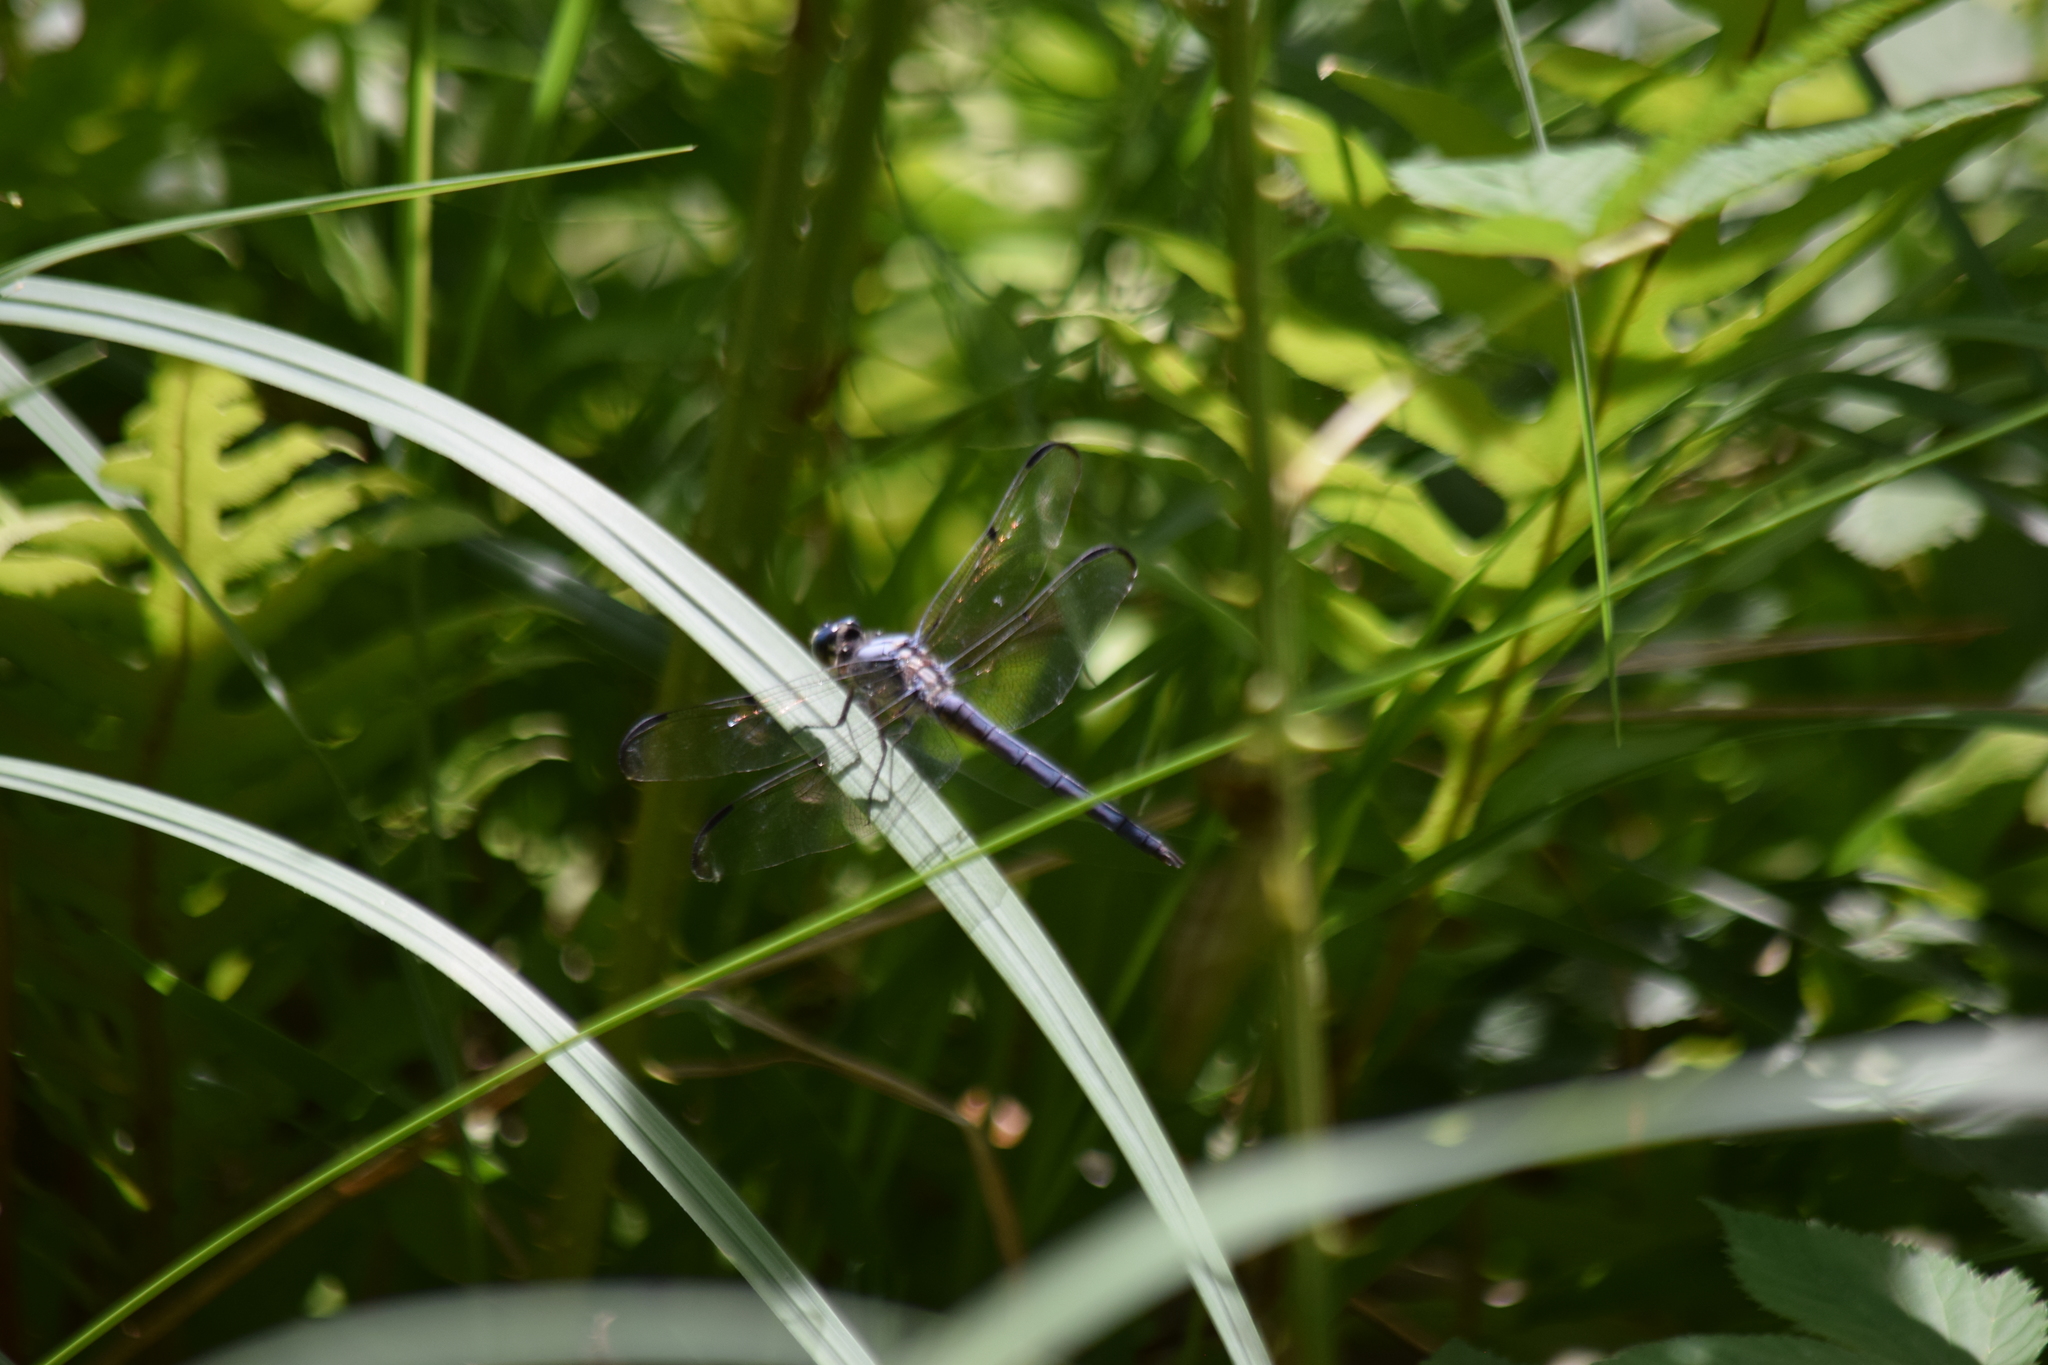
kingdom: Animalia
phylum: Arthropoda
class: Insecta
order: Odonata
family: Libellulidae
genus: Libellula
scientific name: Libellula vibrans
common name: Great blue skimmer
